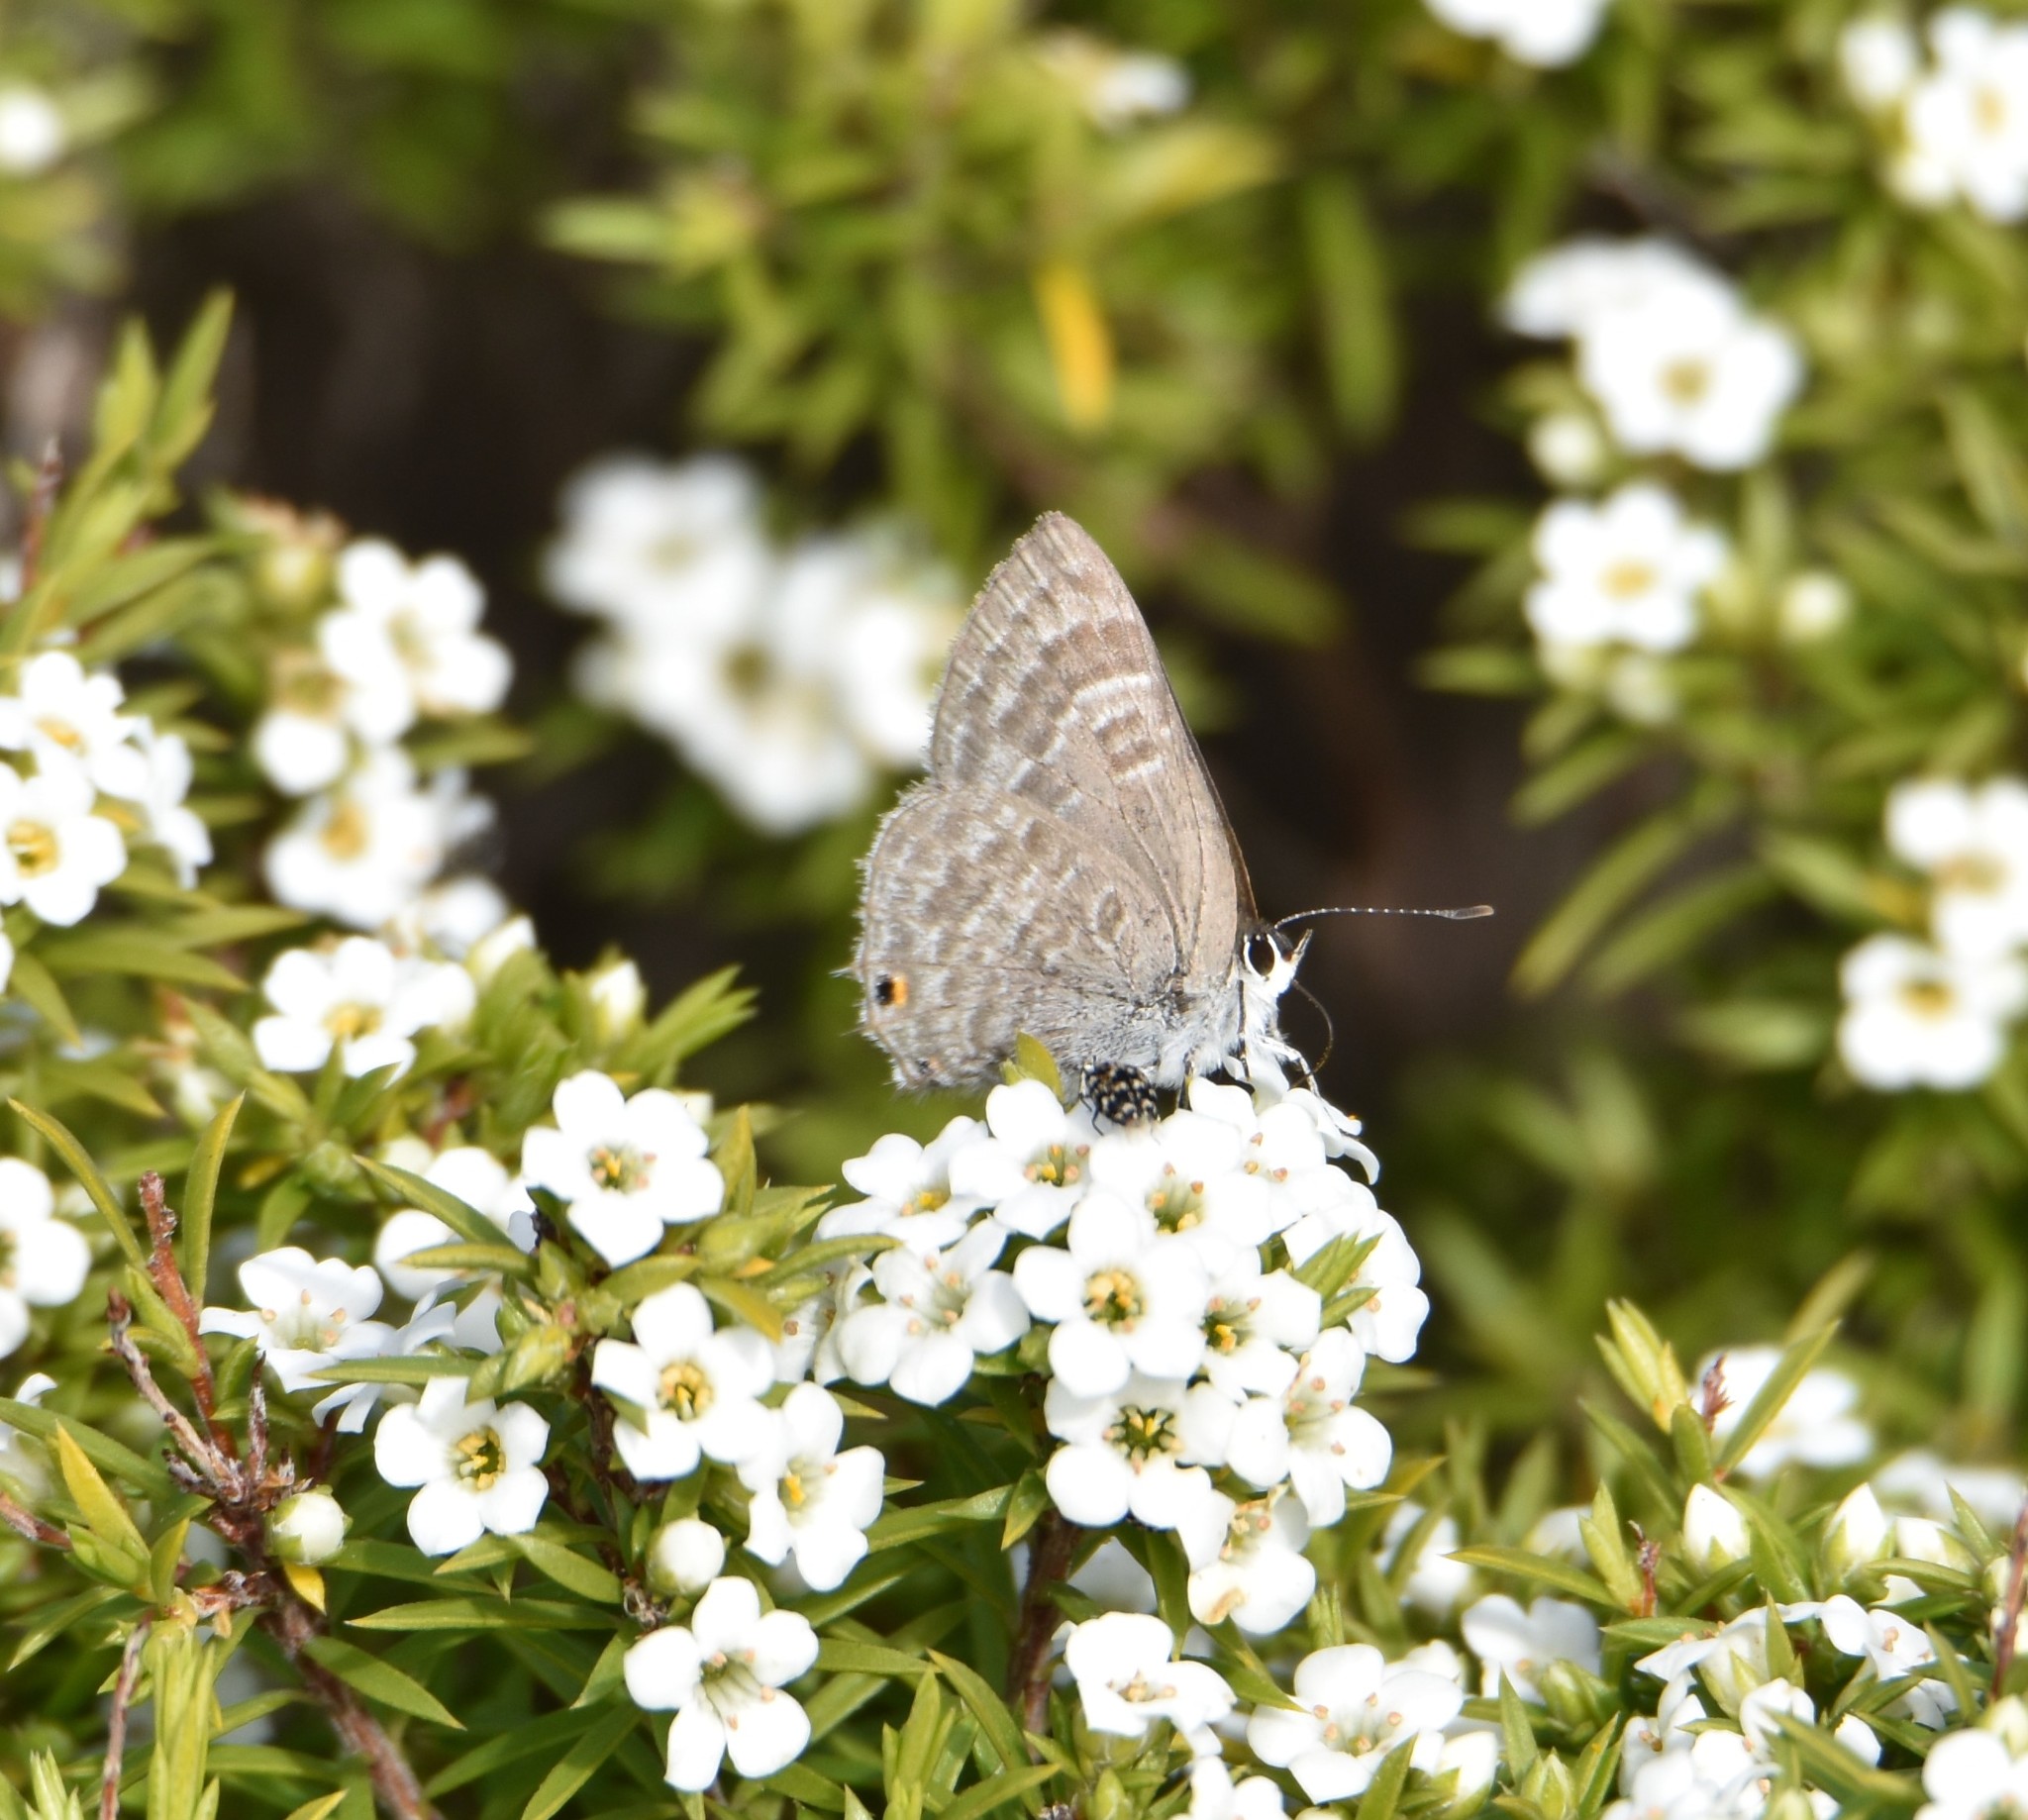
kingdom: Animalia
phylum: Arthropoda
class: Insecta
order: Lepidoptera
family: Lycaenidae
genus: Anthene
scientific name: Anthene definita
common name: Common ciliate blue
